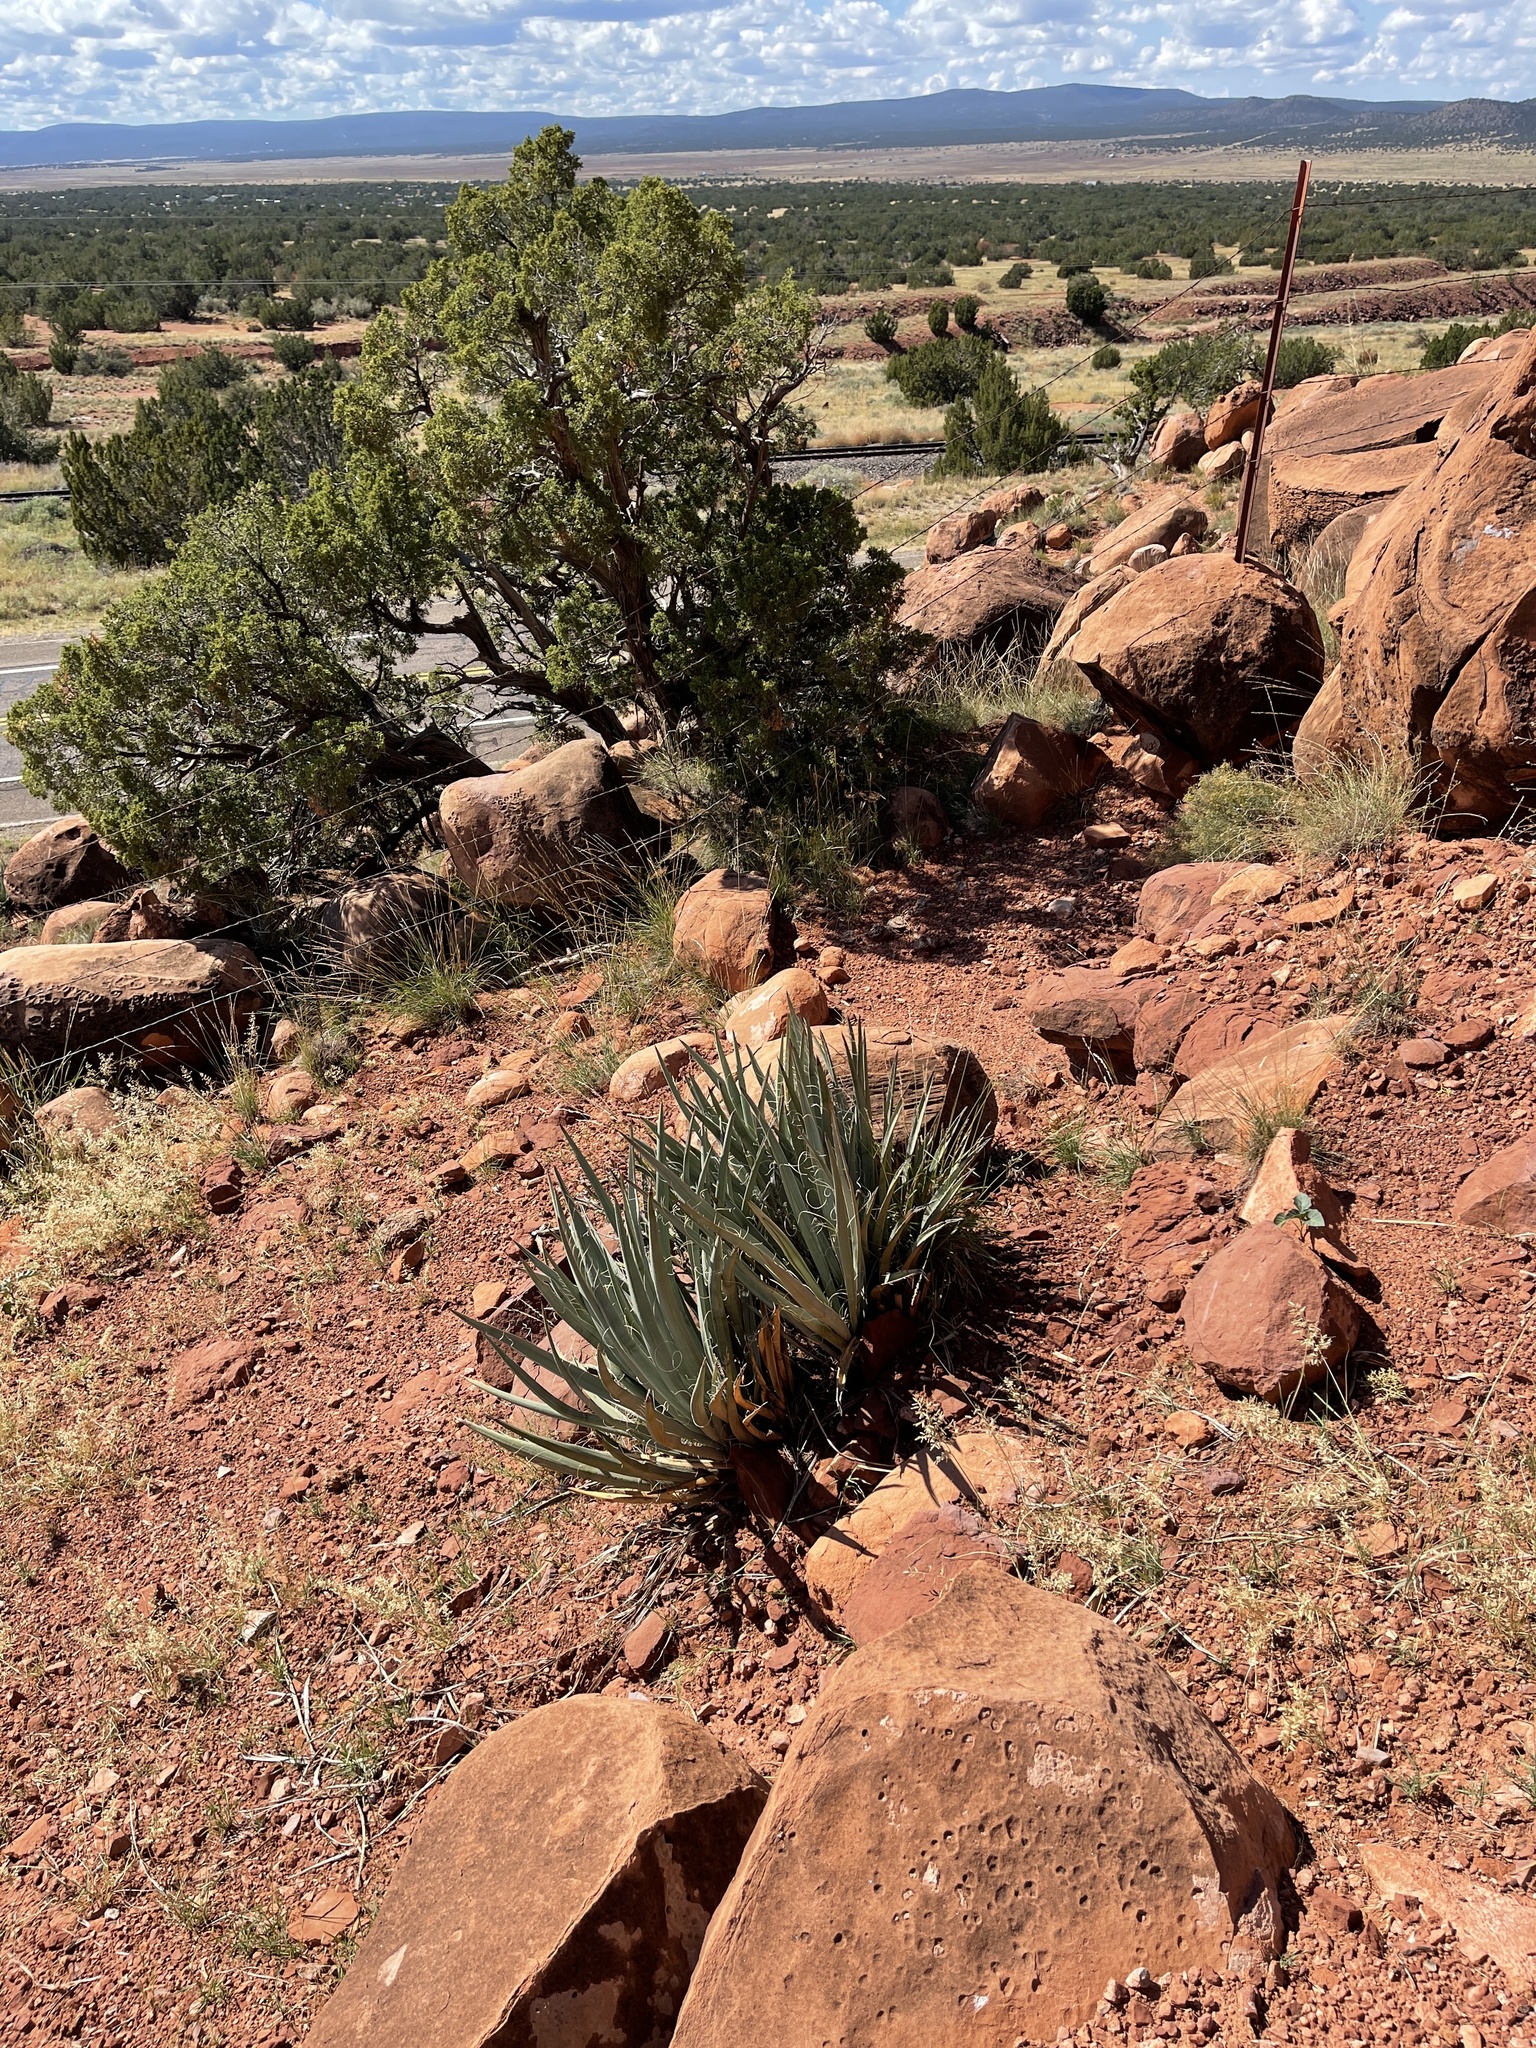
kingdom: Plantae
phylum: Tracheophyta
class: Liliopsida
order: Asparagales
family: Asparagaceae
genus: Yucca
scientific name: Yucca baccata
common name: Banana yucca
